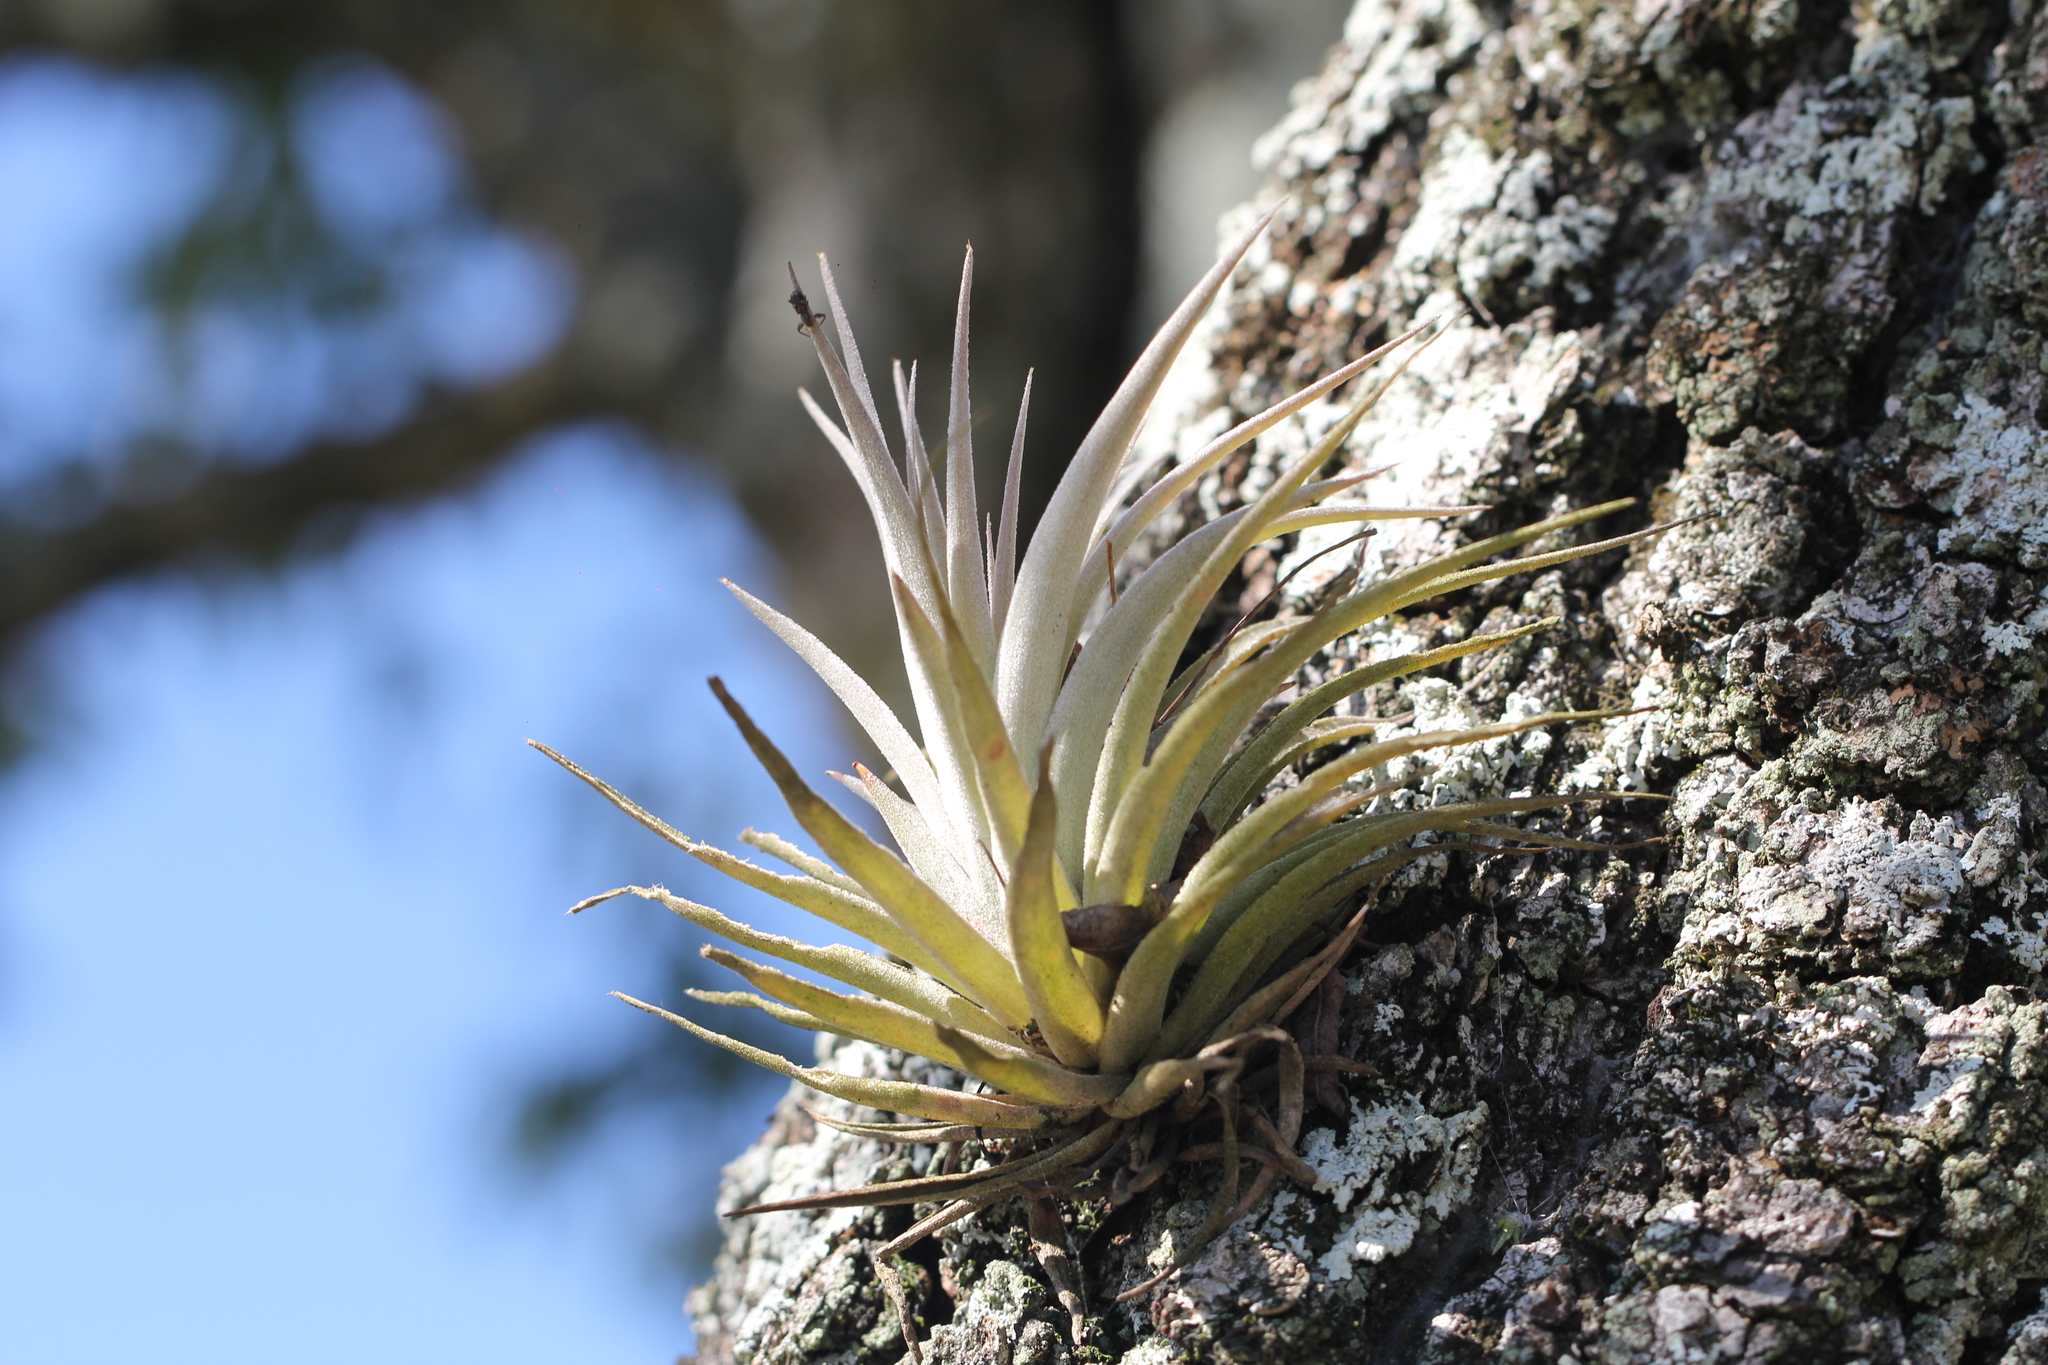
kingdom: Plantae
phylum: Tracheophyta
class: Liliopsida
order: Poales
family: Bromeliaceae
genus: Tillandsia
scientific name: Tillandsia recurvifolia
